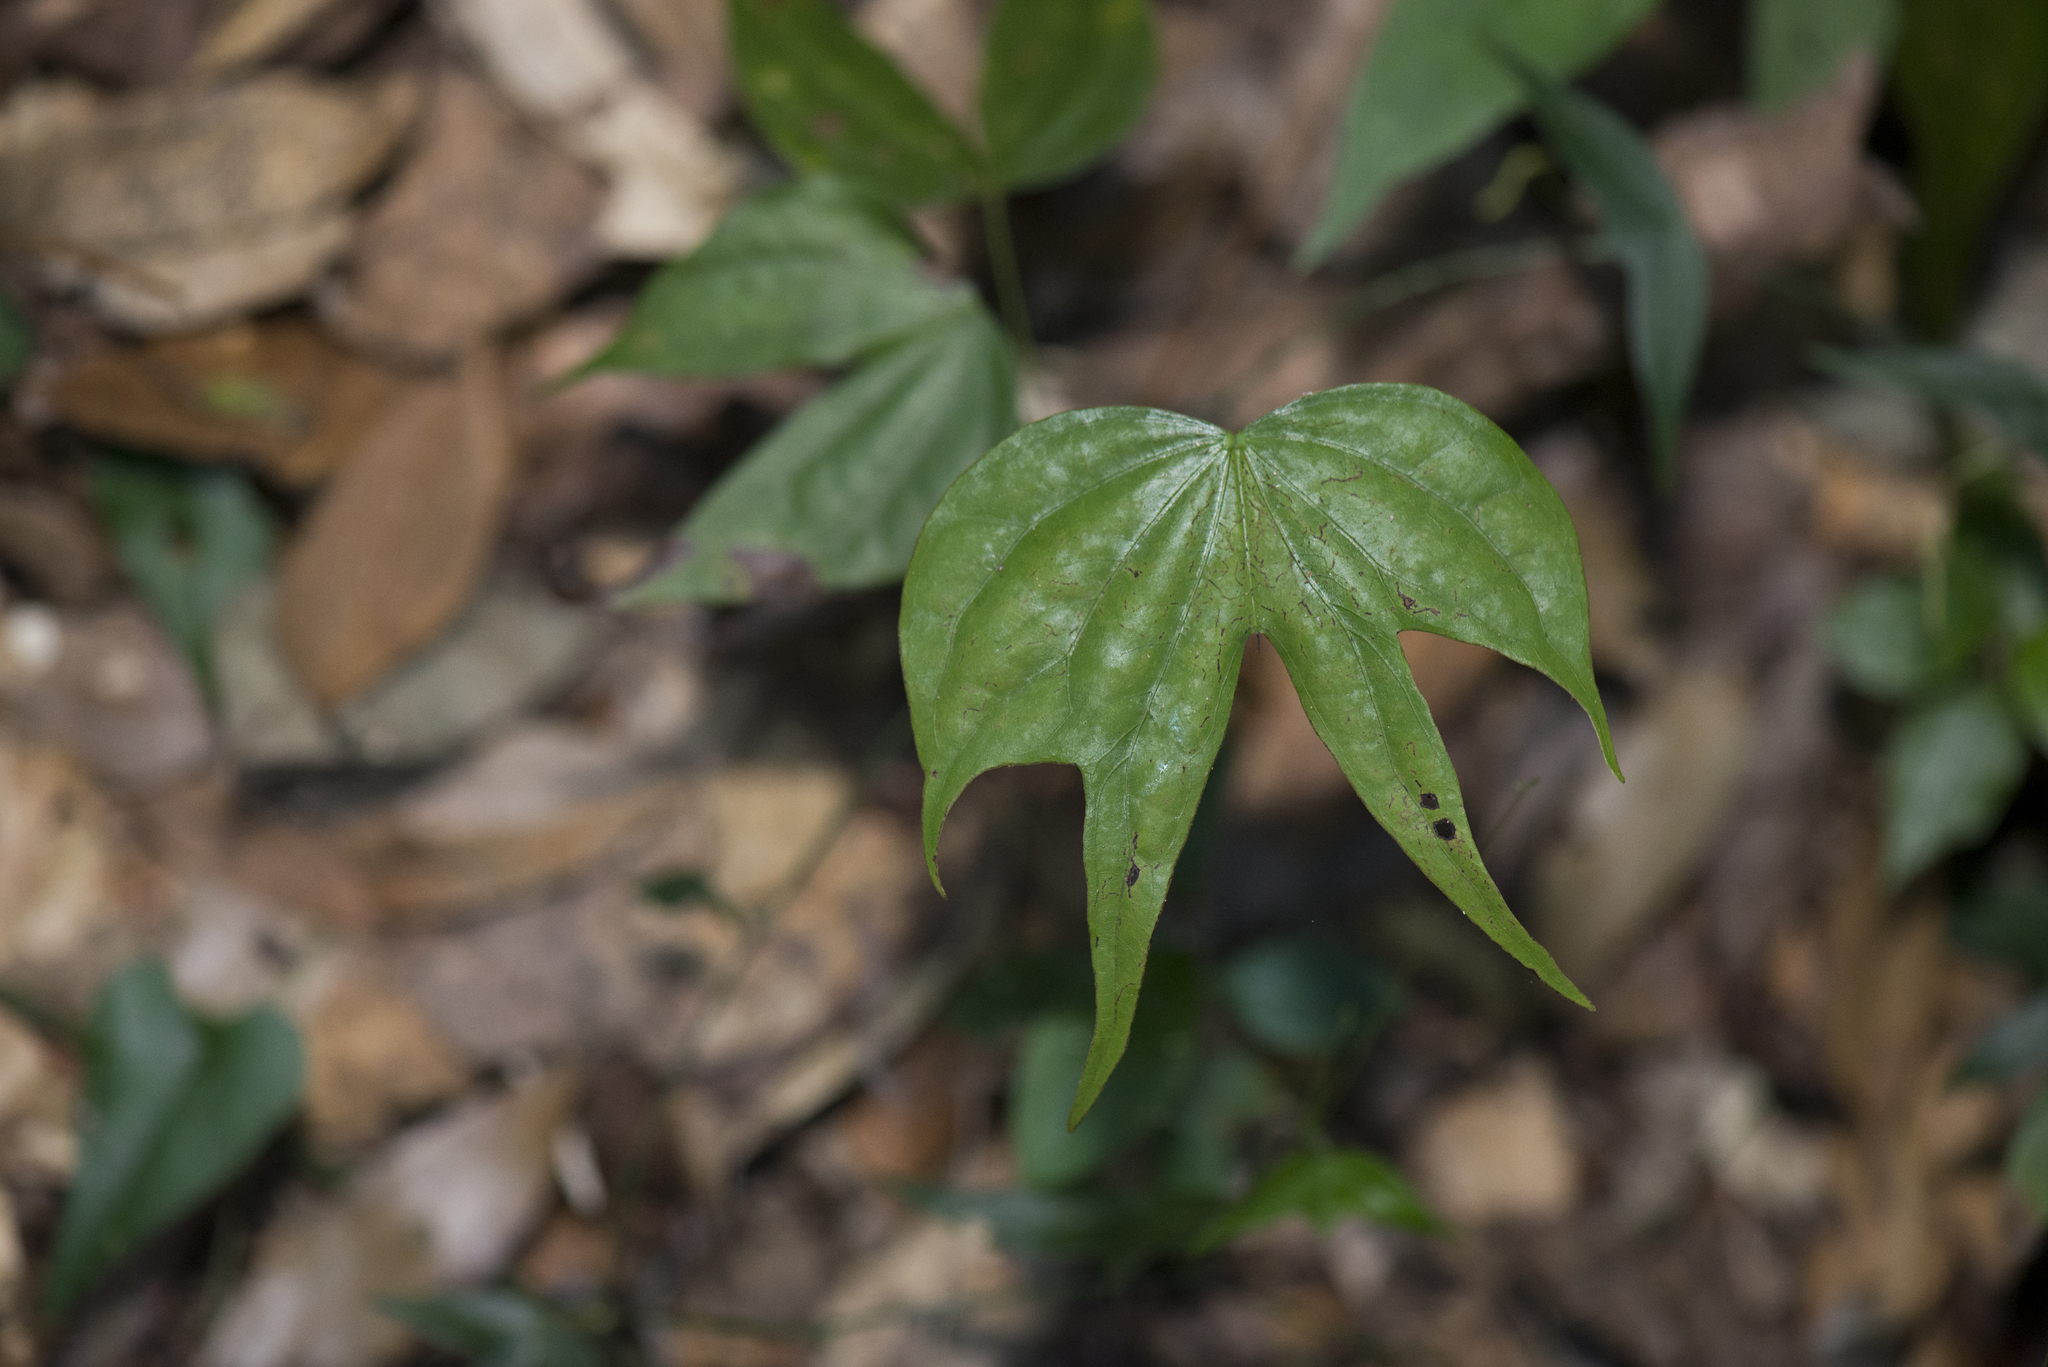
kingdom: Plantae
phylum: Tracheophyta
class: Magnoliopsida
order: Fabales
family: Fabaceae
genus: Phanera
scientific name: Phanera championii
